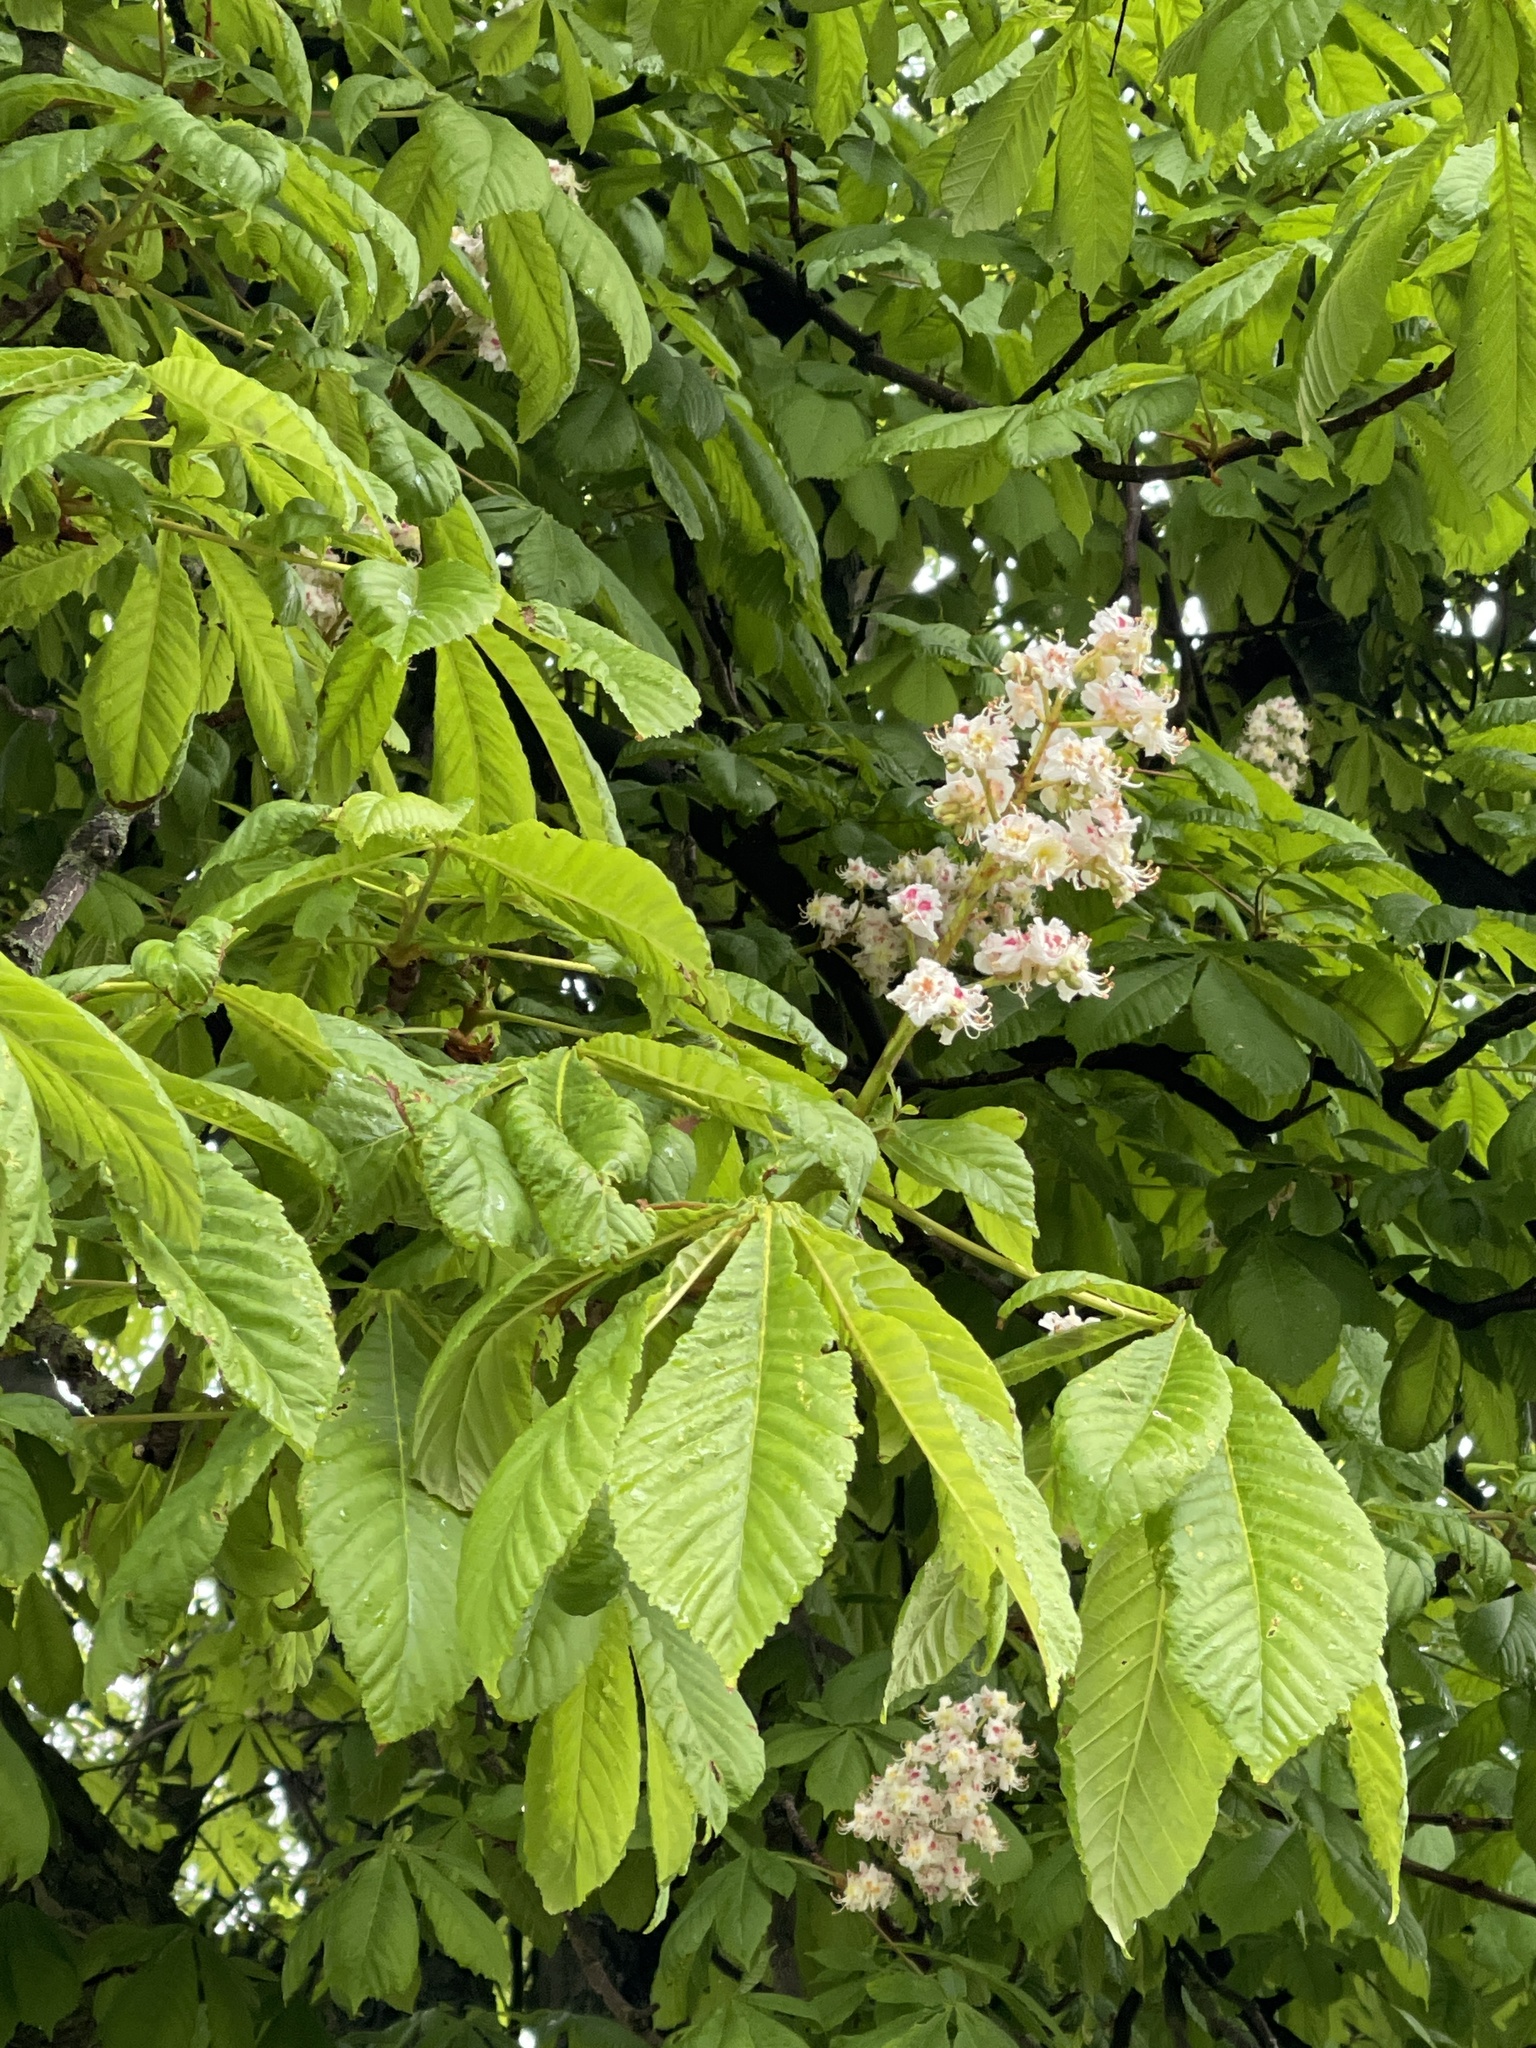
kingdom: Plantae
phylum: Tracheophyta
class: Magnoliopsida
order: Sapindales
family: Sapindaceae
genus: Aesculus
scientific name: Aesculus hippocastanum
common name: Horse-chestnut
